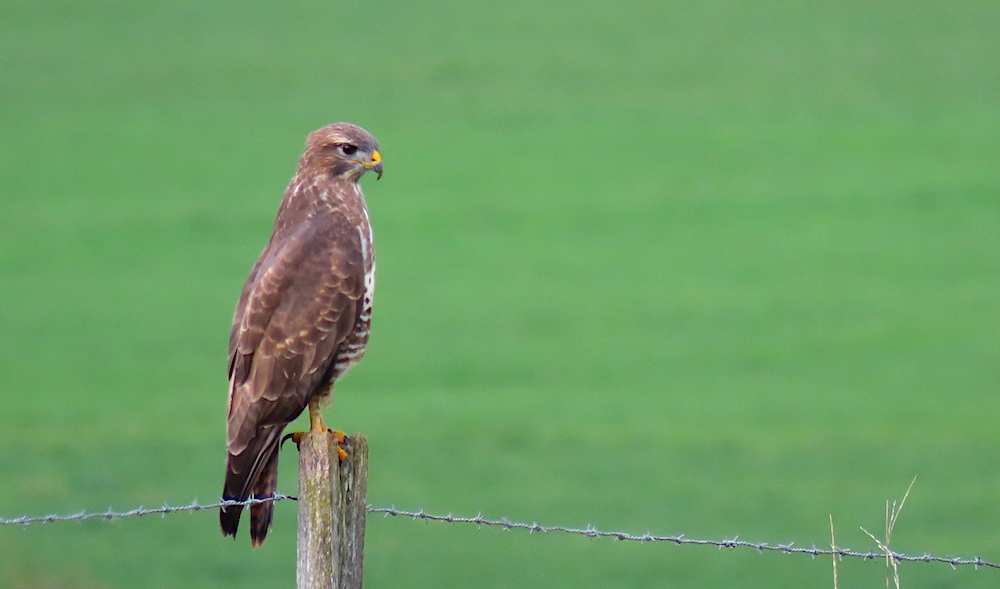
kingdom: Animalia
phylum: Chordata
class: Aves
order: Accipitriformes
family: Accipitridae
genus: Buteo
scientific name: Buteo buteo
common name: Common buzzard
